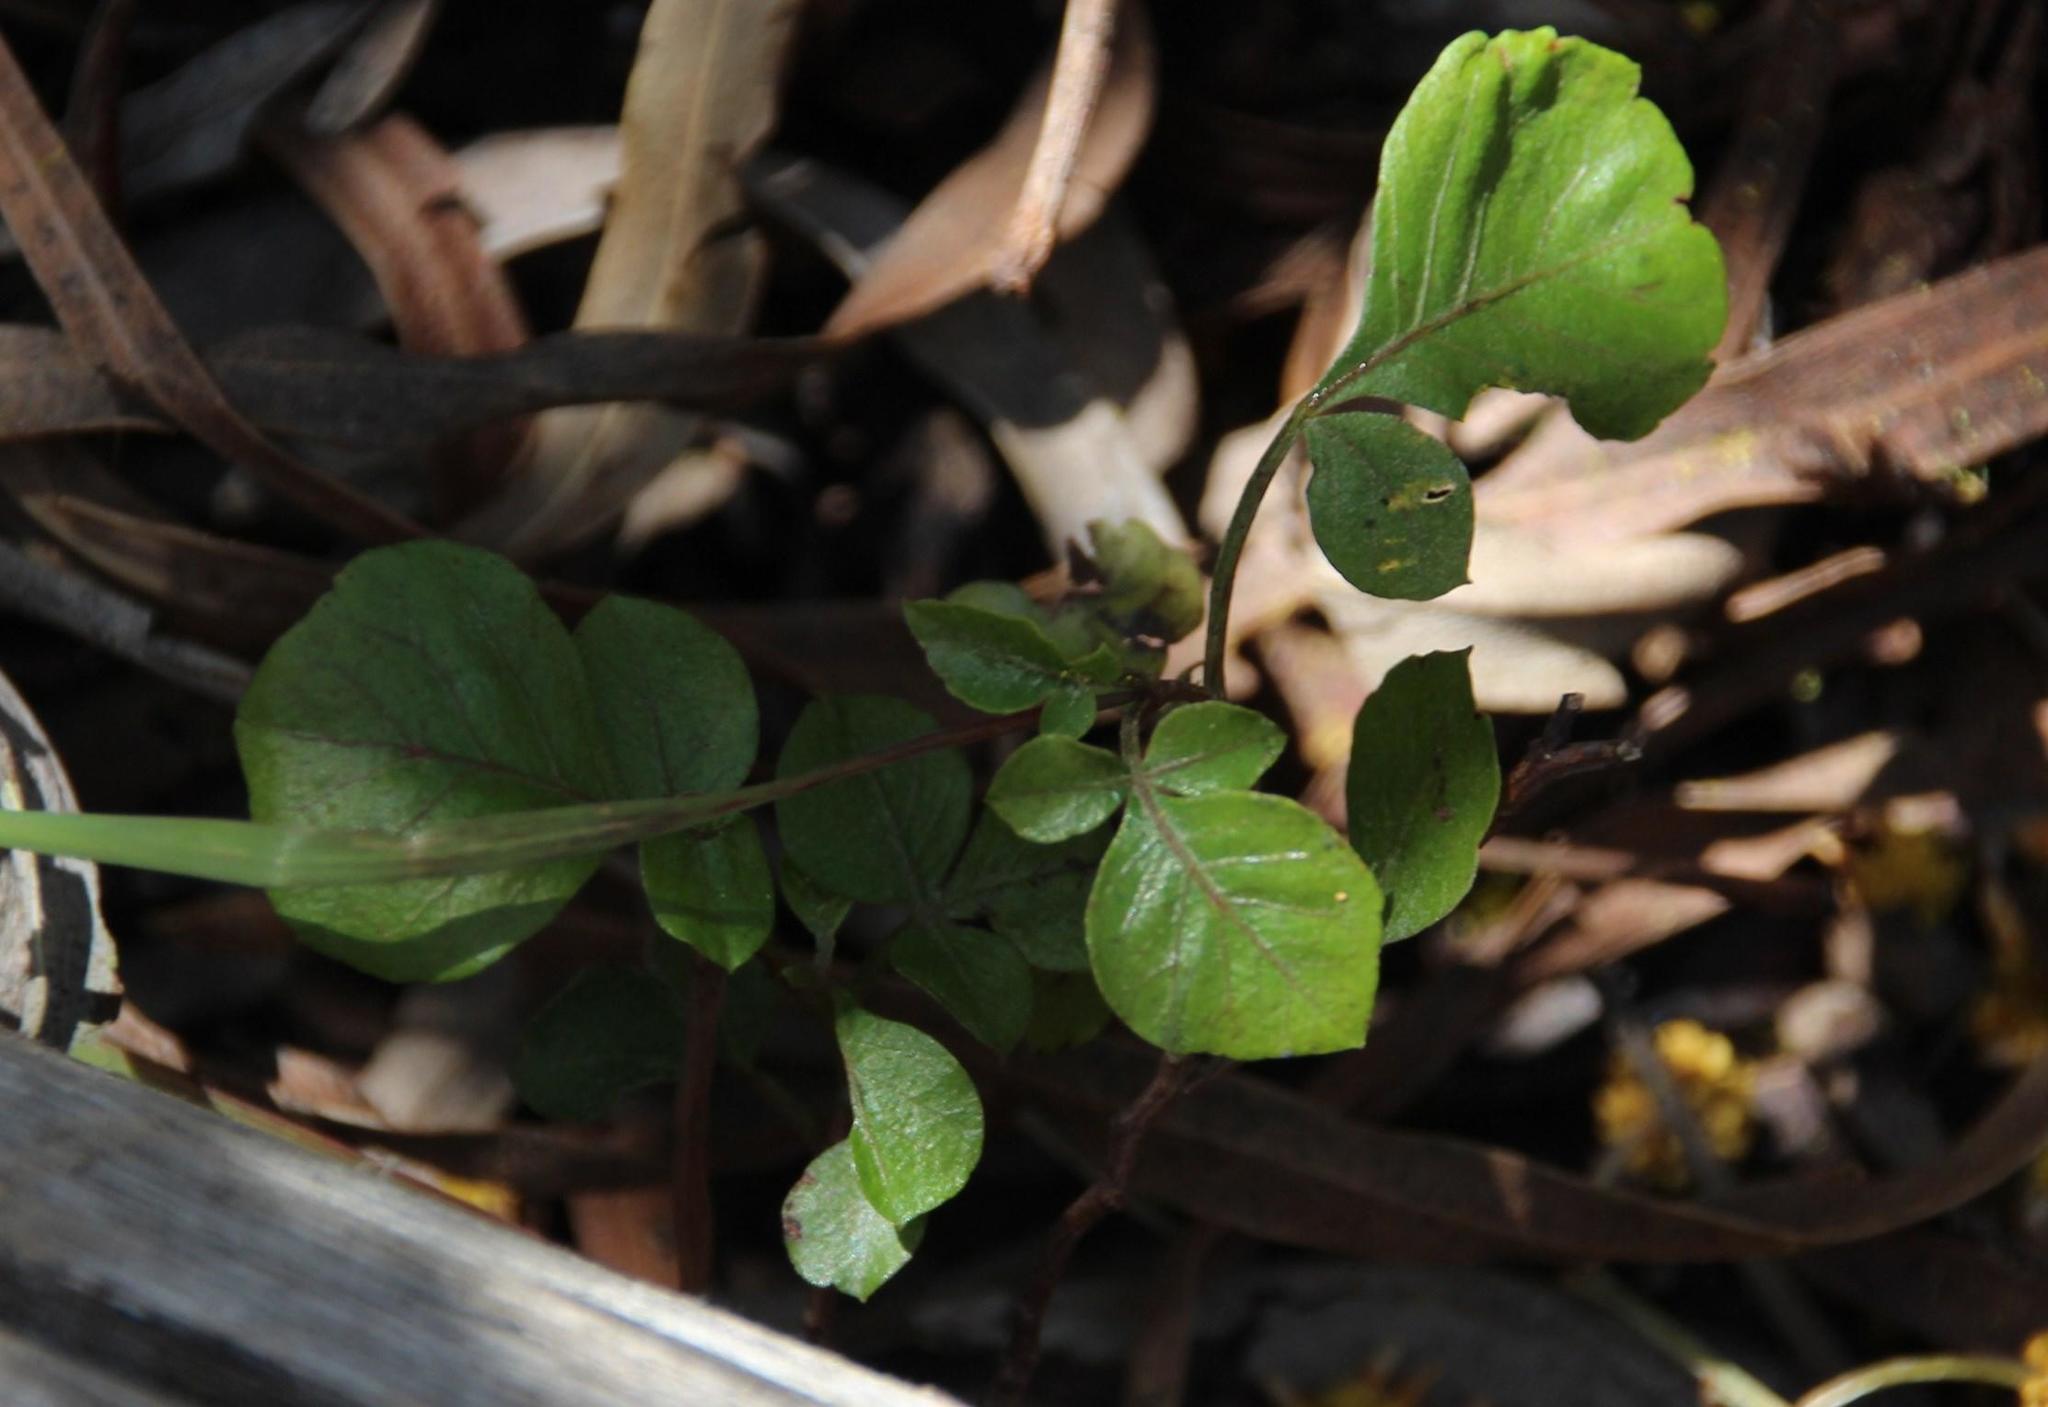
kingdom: Plantae
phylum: Tracheophyta
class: Magnoliopsida
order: Sapindales
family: Anacardiaceae
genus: Searsia
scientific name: Searsia glauca
